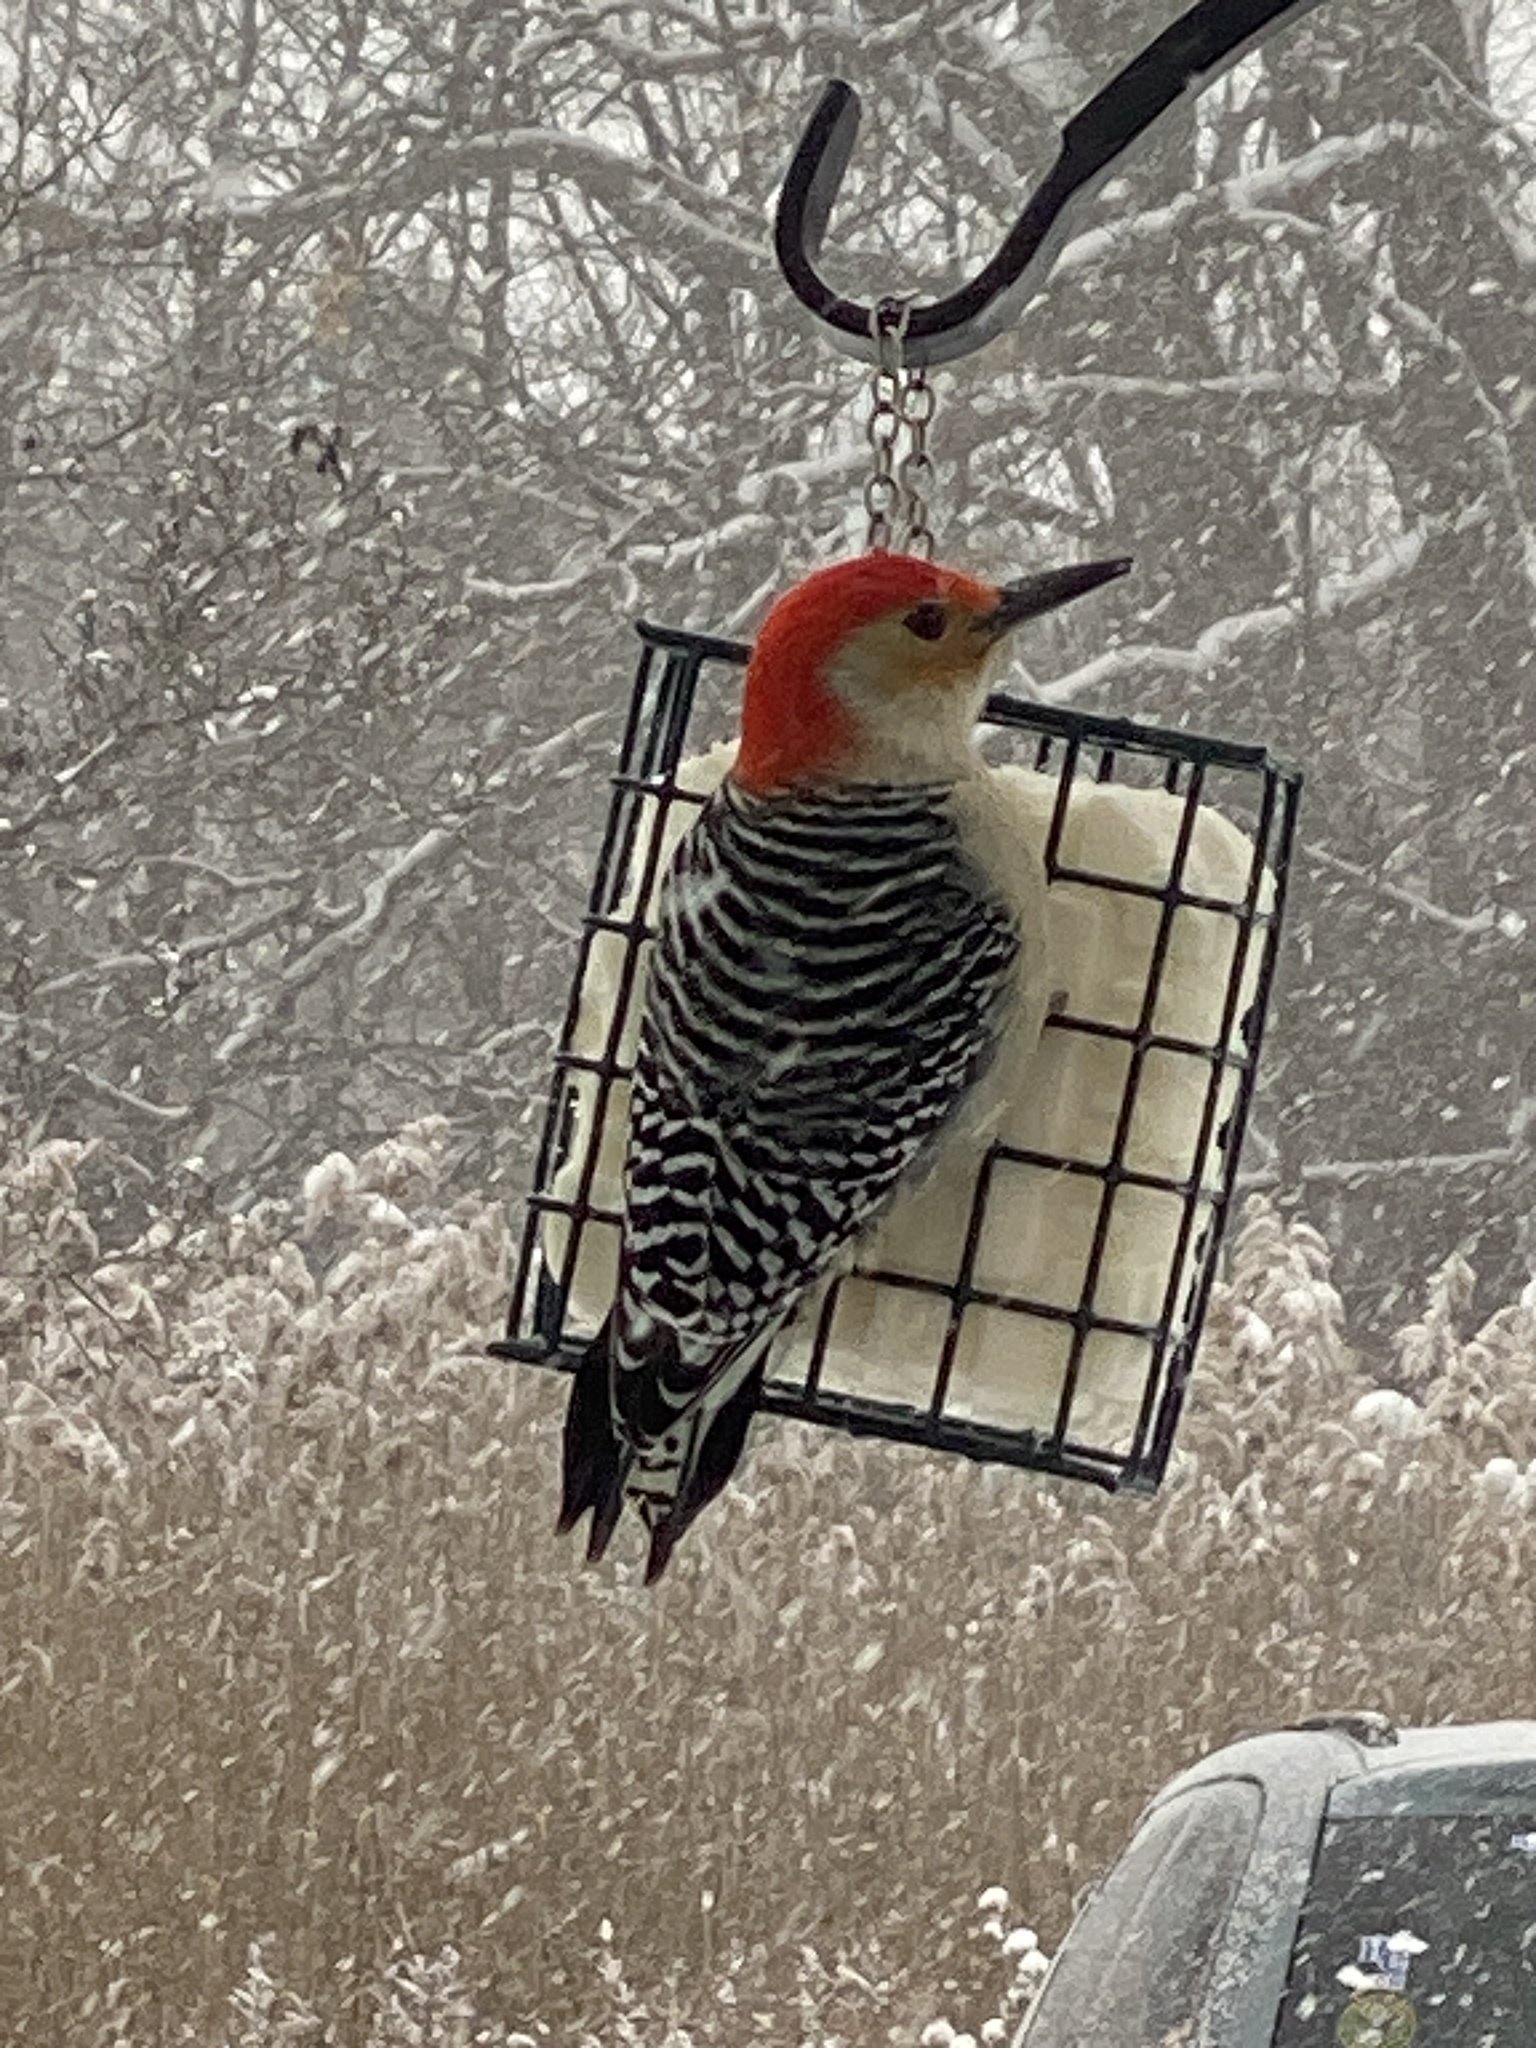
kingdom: Animalia
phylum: Chordata
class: Aves
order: Piciformes
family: Picidae
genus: Melanerpes
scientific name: Melanerpes carolinus
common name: Red-bellied woodpecker
